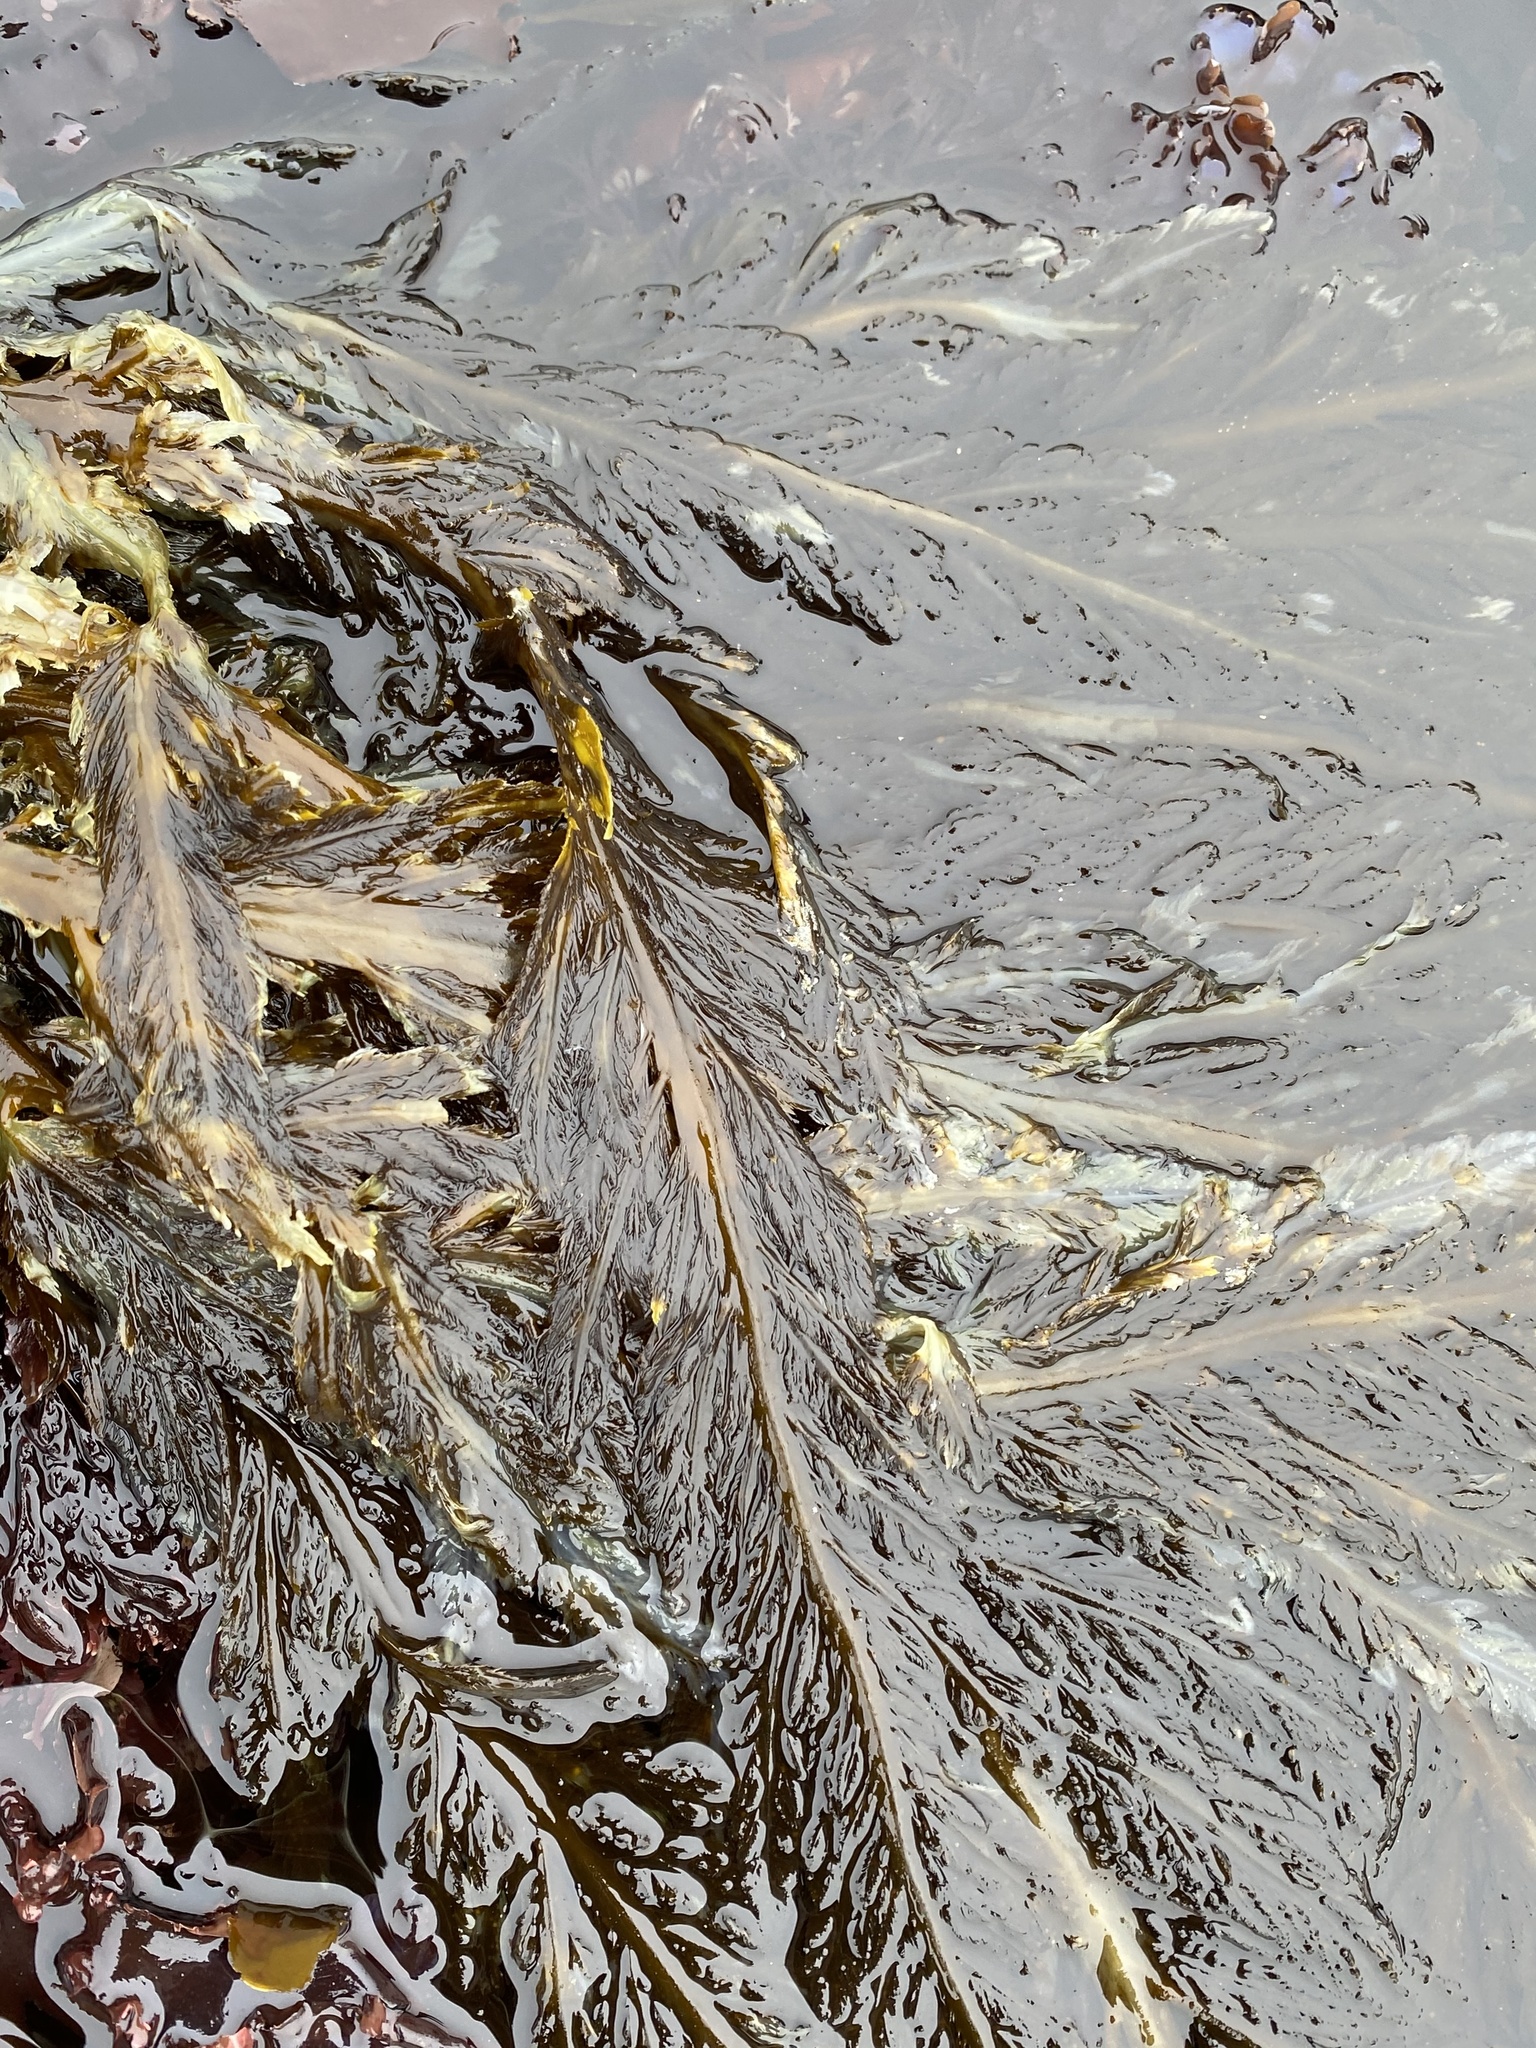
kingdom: Chromista
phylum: Ochrophyta
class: Phaeophyceae
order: Desmarestiales
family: Desmarestiaceae
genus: Desmarestia
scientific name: Desmarestia ligulata
